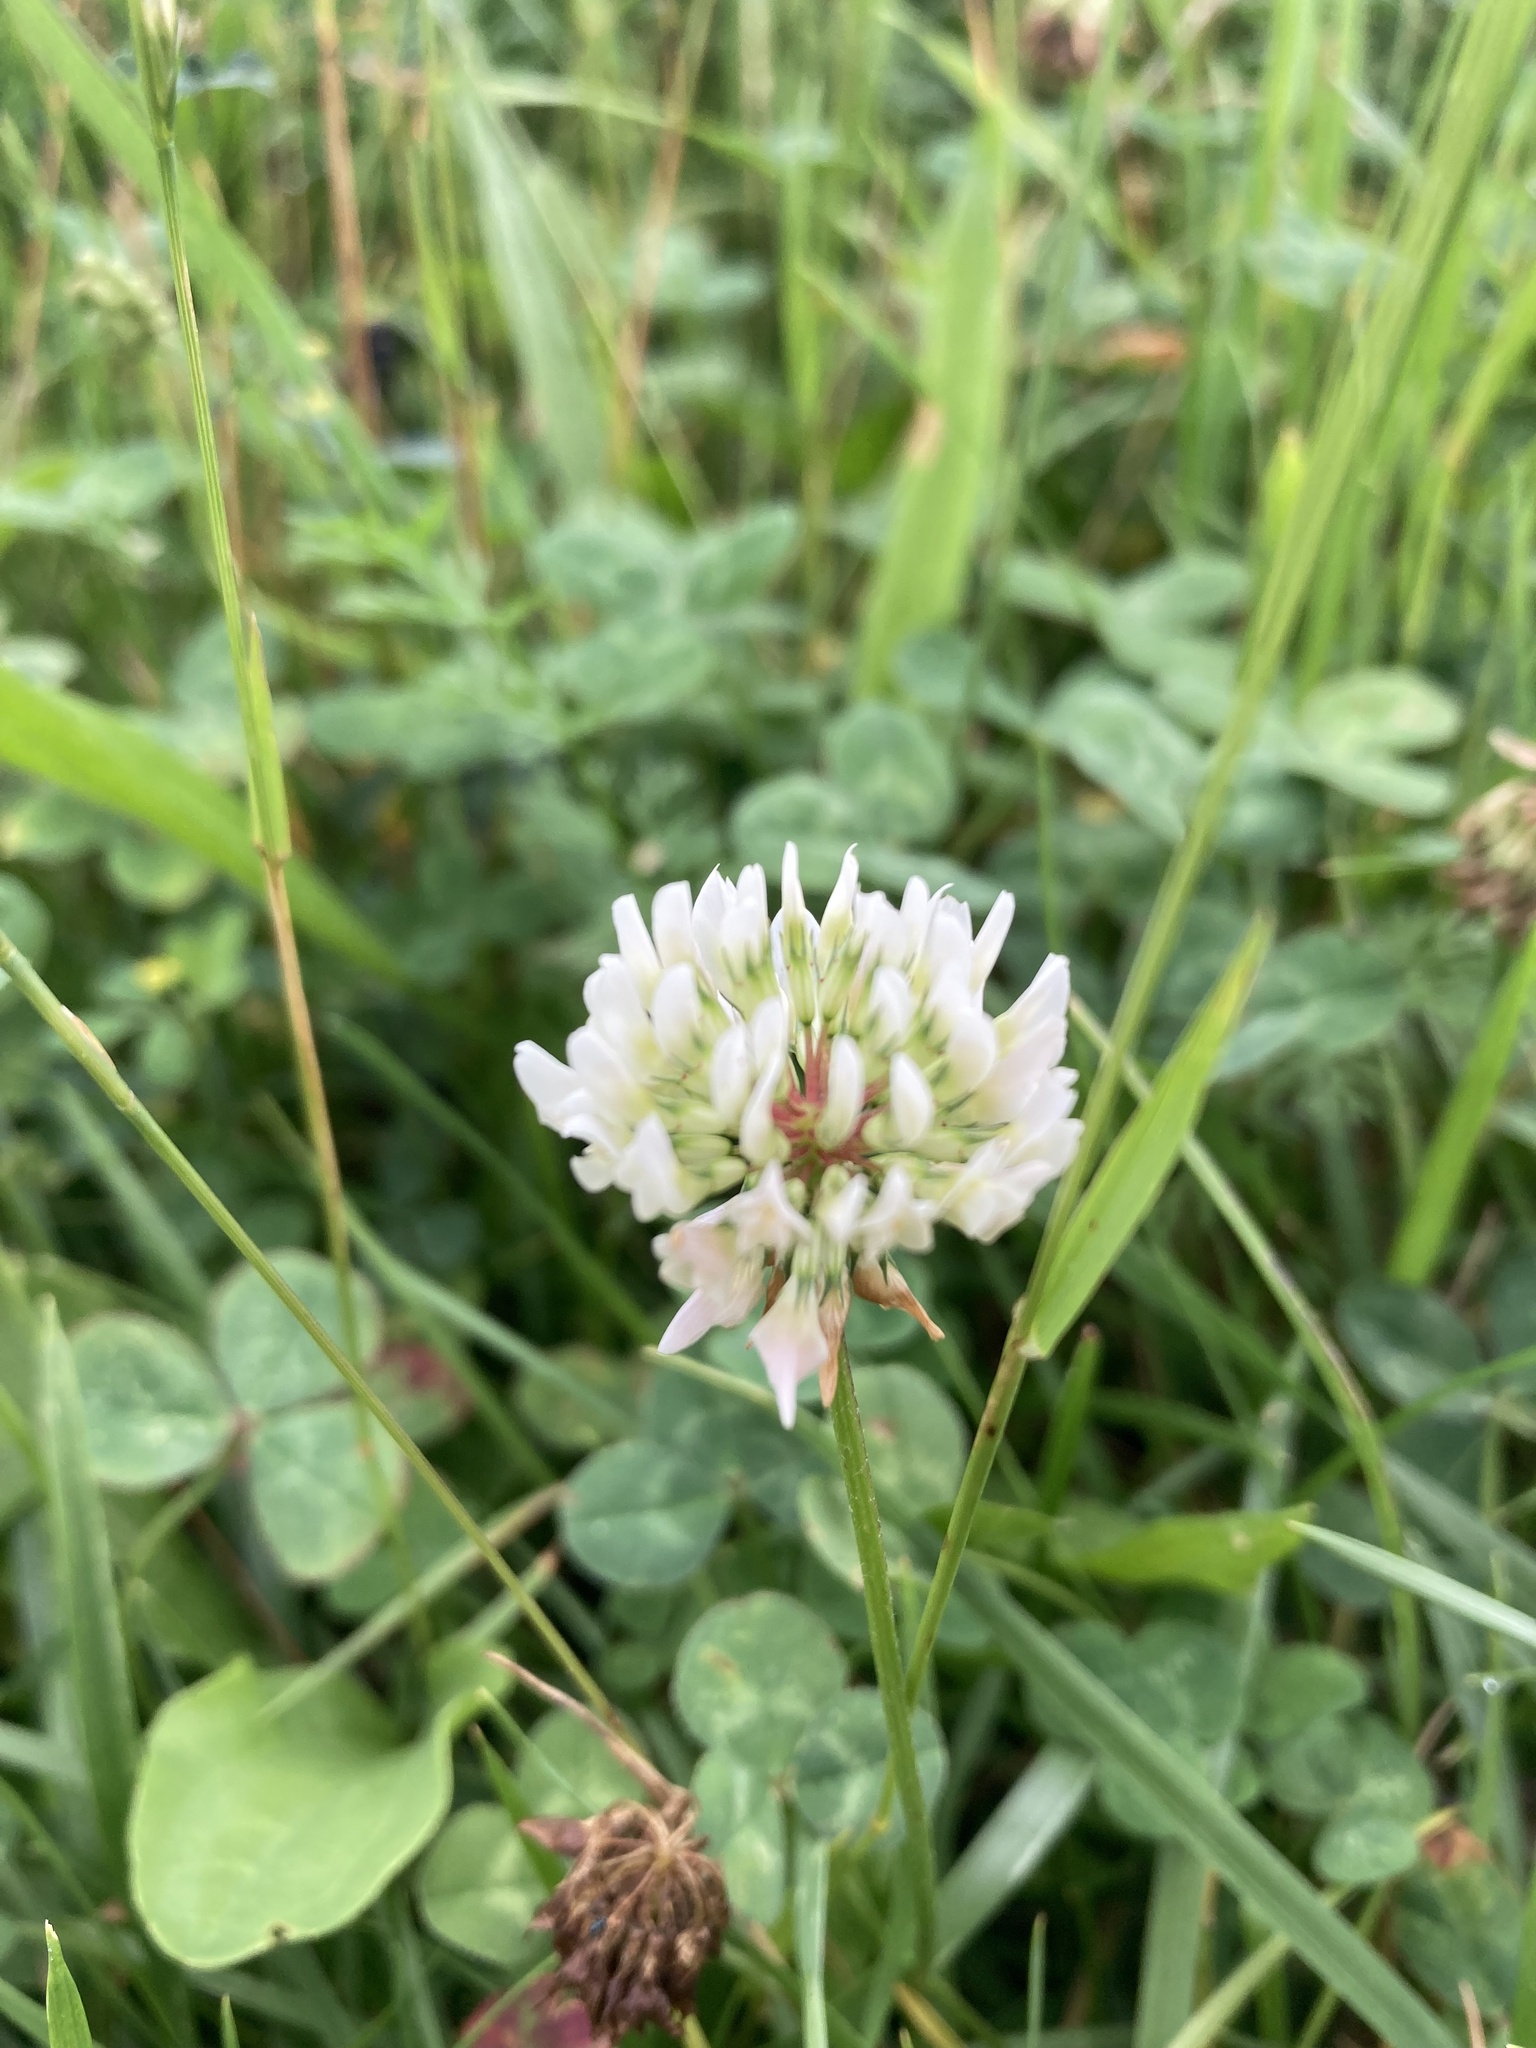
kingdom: Plantae
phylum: Tracheophyta
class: Magnoliopsida
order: Fabales
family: Fabaceae
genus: Trifolium
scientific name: Trifolium repens
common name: White clover
